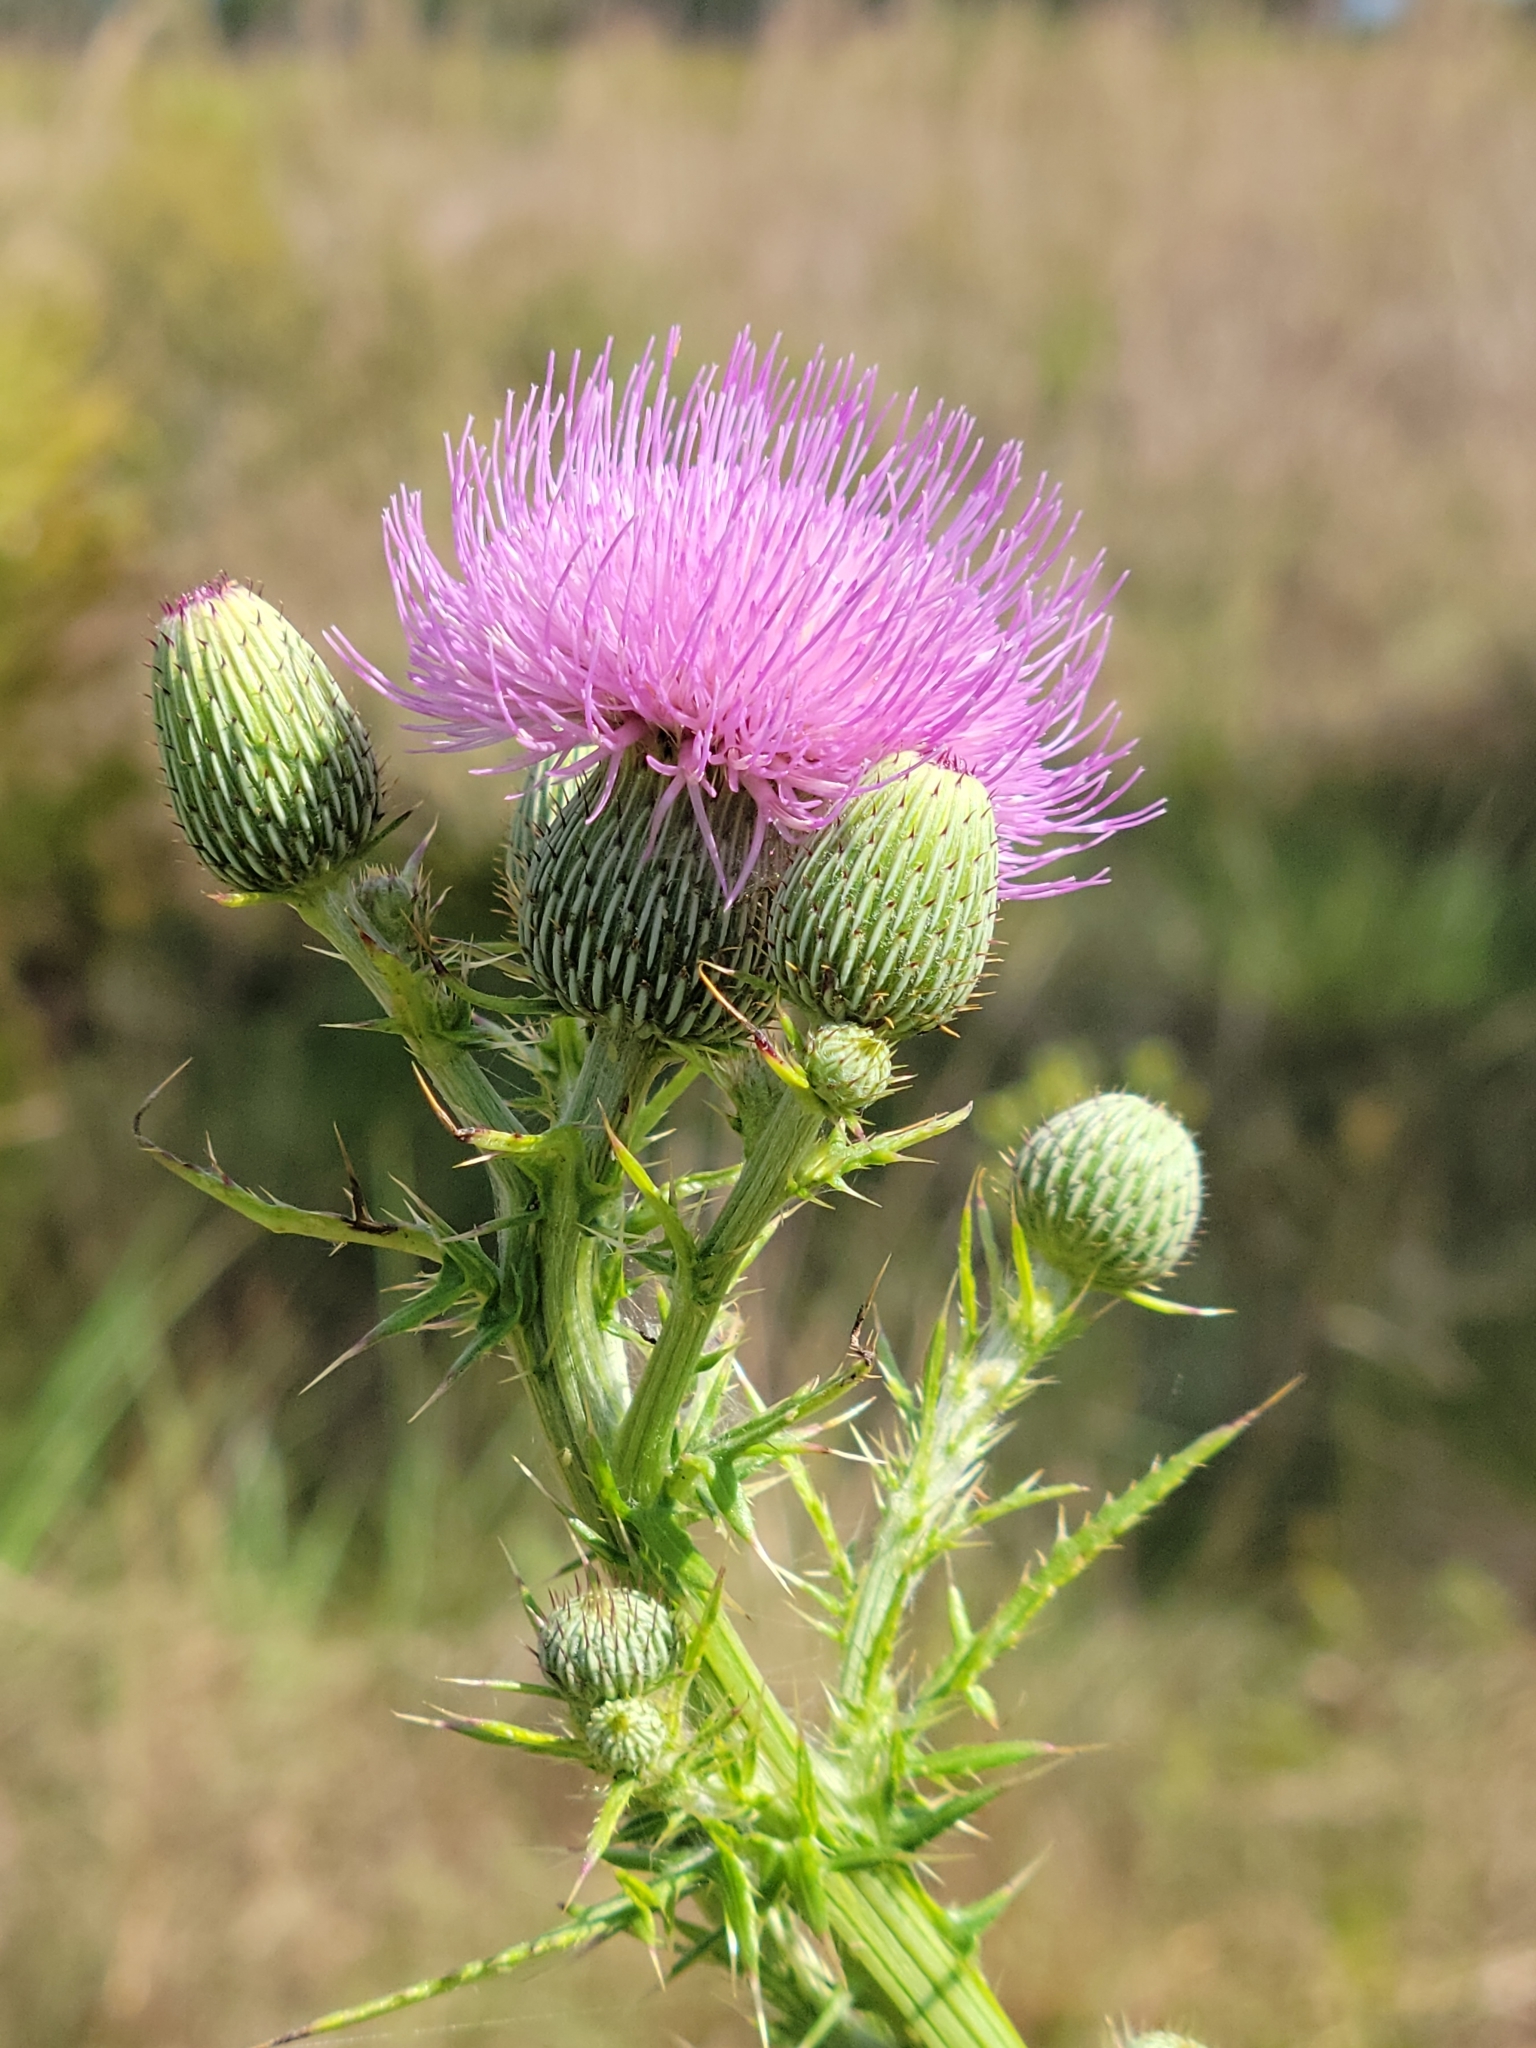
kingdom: Plantae
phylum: Tracheophyta
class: Magnoliopsida
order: Asterales
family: Asteraceae
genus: Cirsium
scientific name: Cirsium nuttalii
